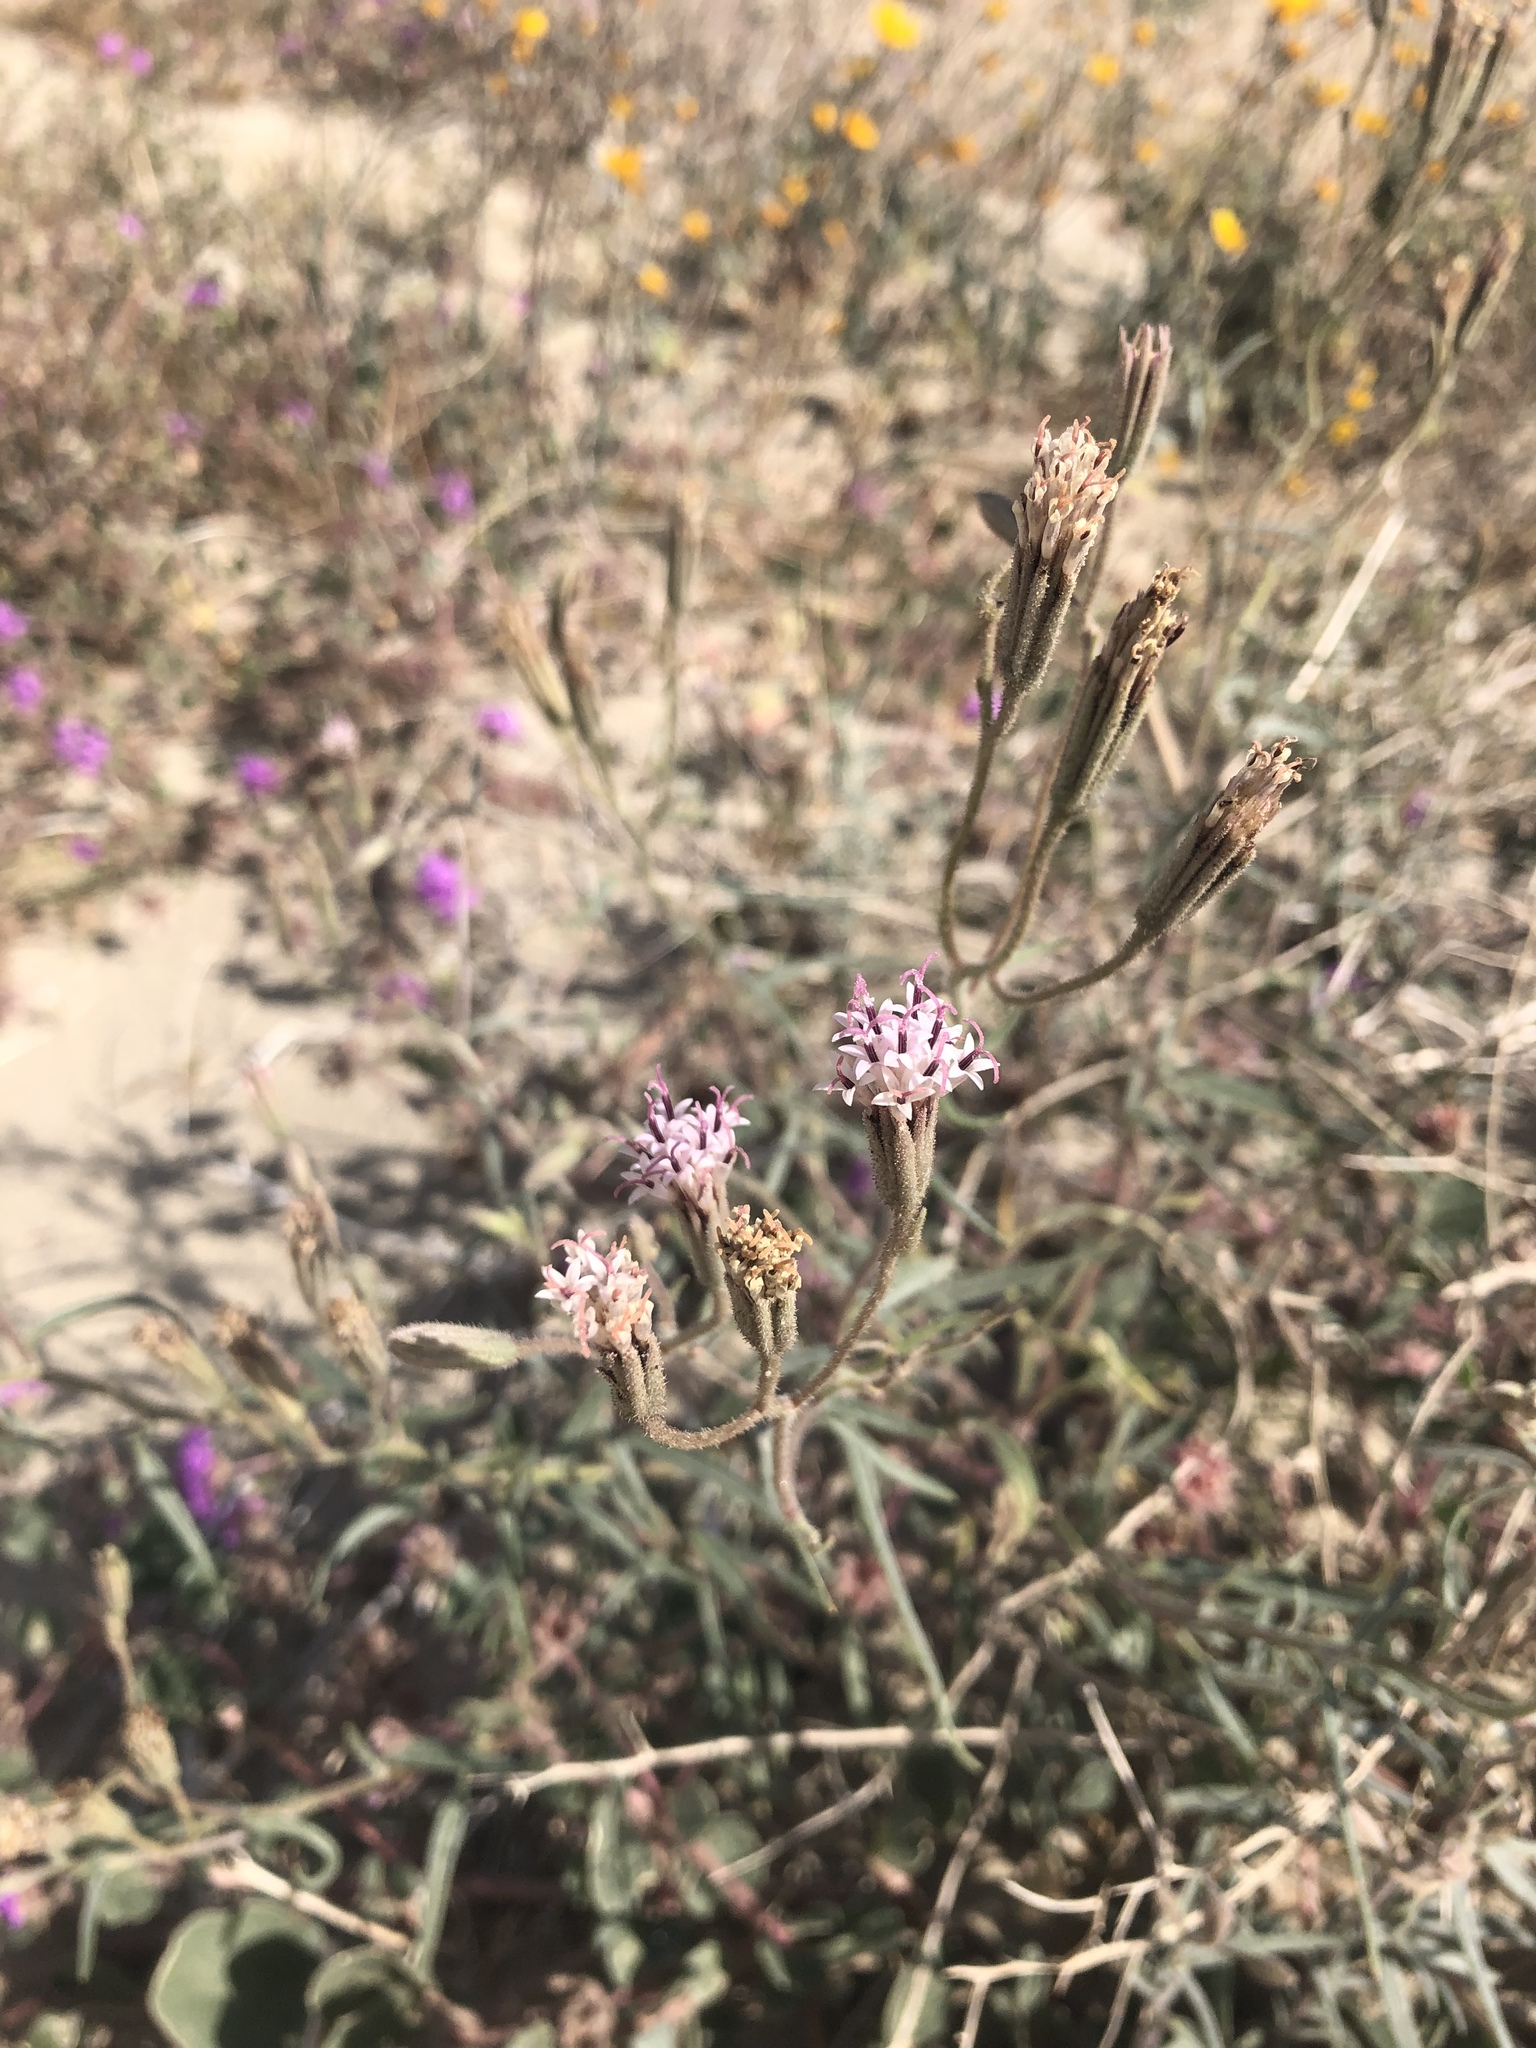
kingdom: Plantae
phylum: Tracheophyta
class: Magnoliopsida
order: Asterales
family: Asteraceae
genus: Palafoxia
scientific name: Palafoxia arida
